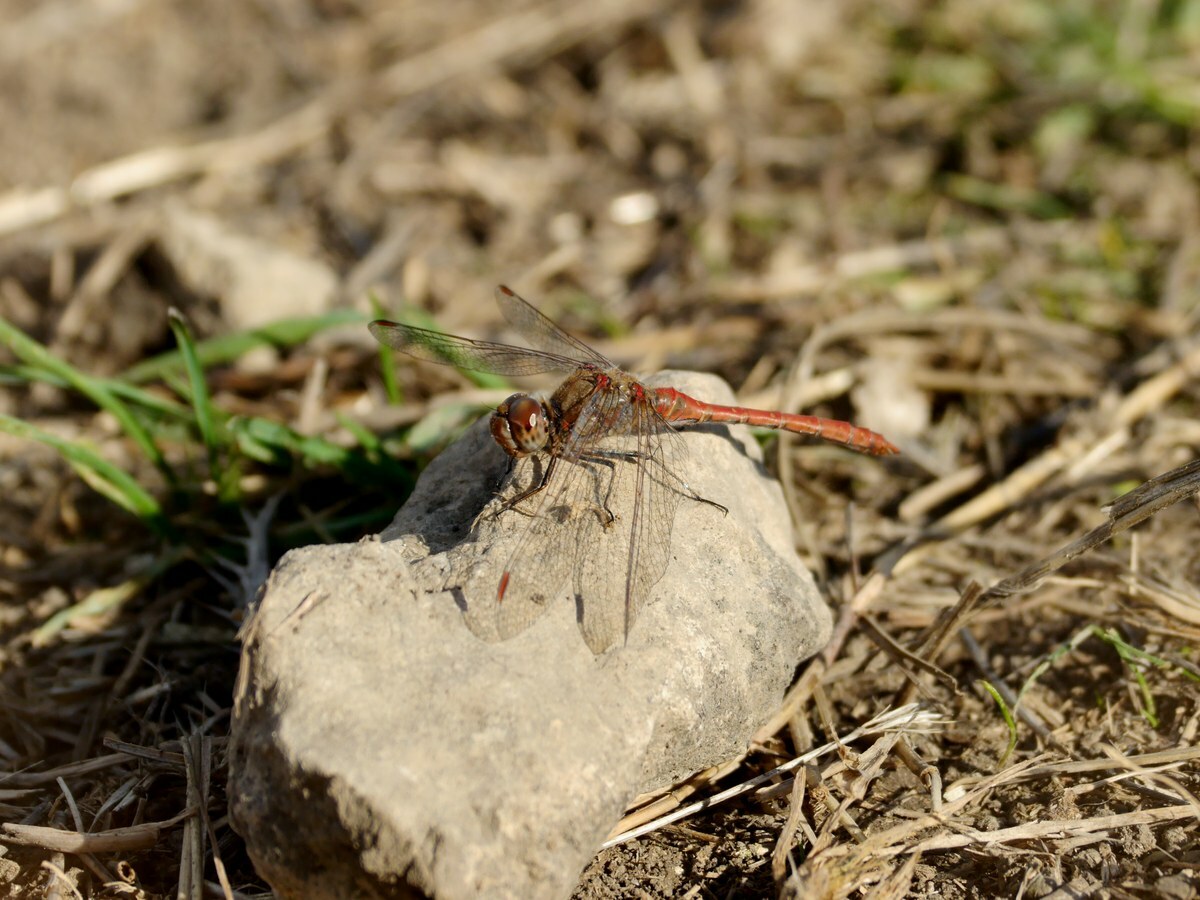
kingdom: Animalia
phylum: Arthropoda
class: Insecta
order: Odonata
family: Libellulidae
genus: Sympetrum
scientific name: Sympetrum striolatum
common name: Common darter
